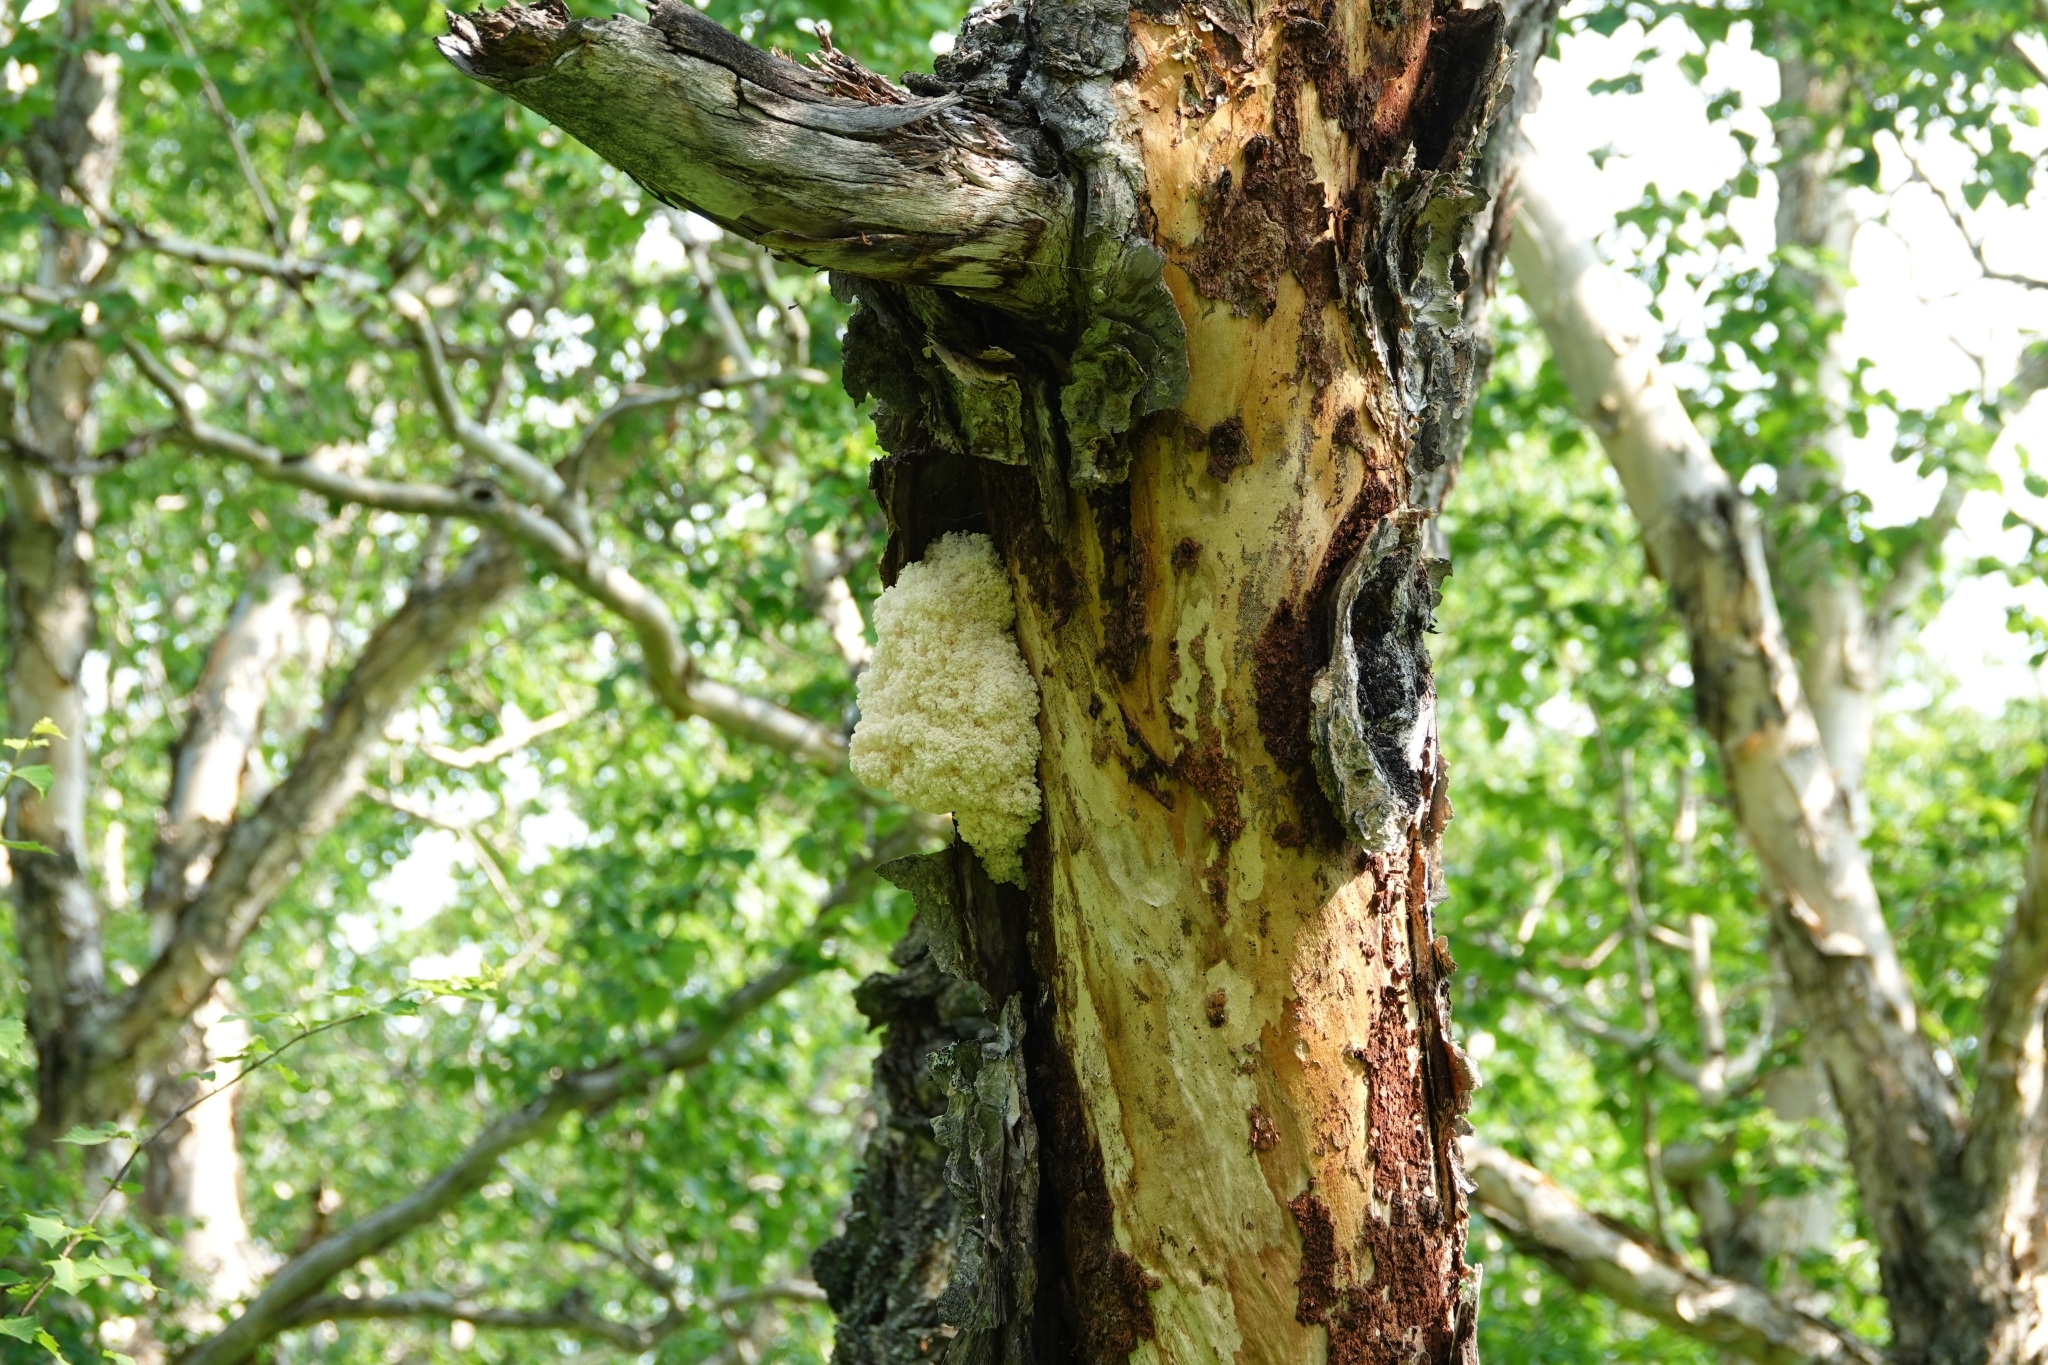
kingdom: Fungi
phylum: Basidiomycota
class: Agaricomycetes
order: Russulales
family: Hericiaceae
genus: Hericium
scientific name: Hericium coralloides
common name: Coral tooth
